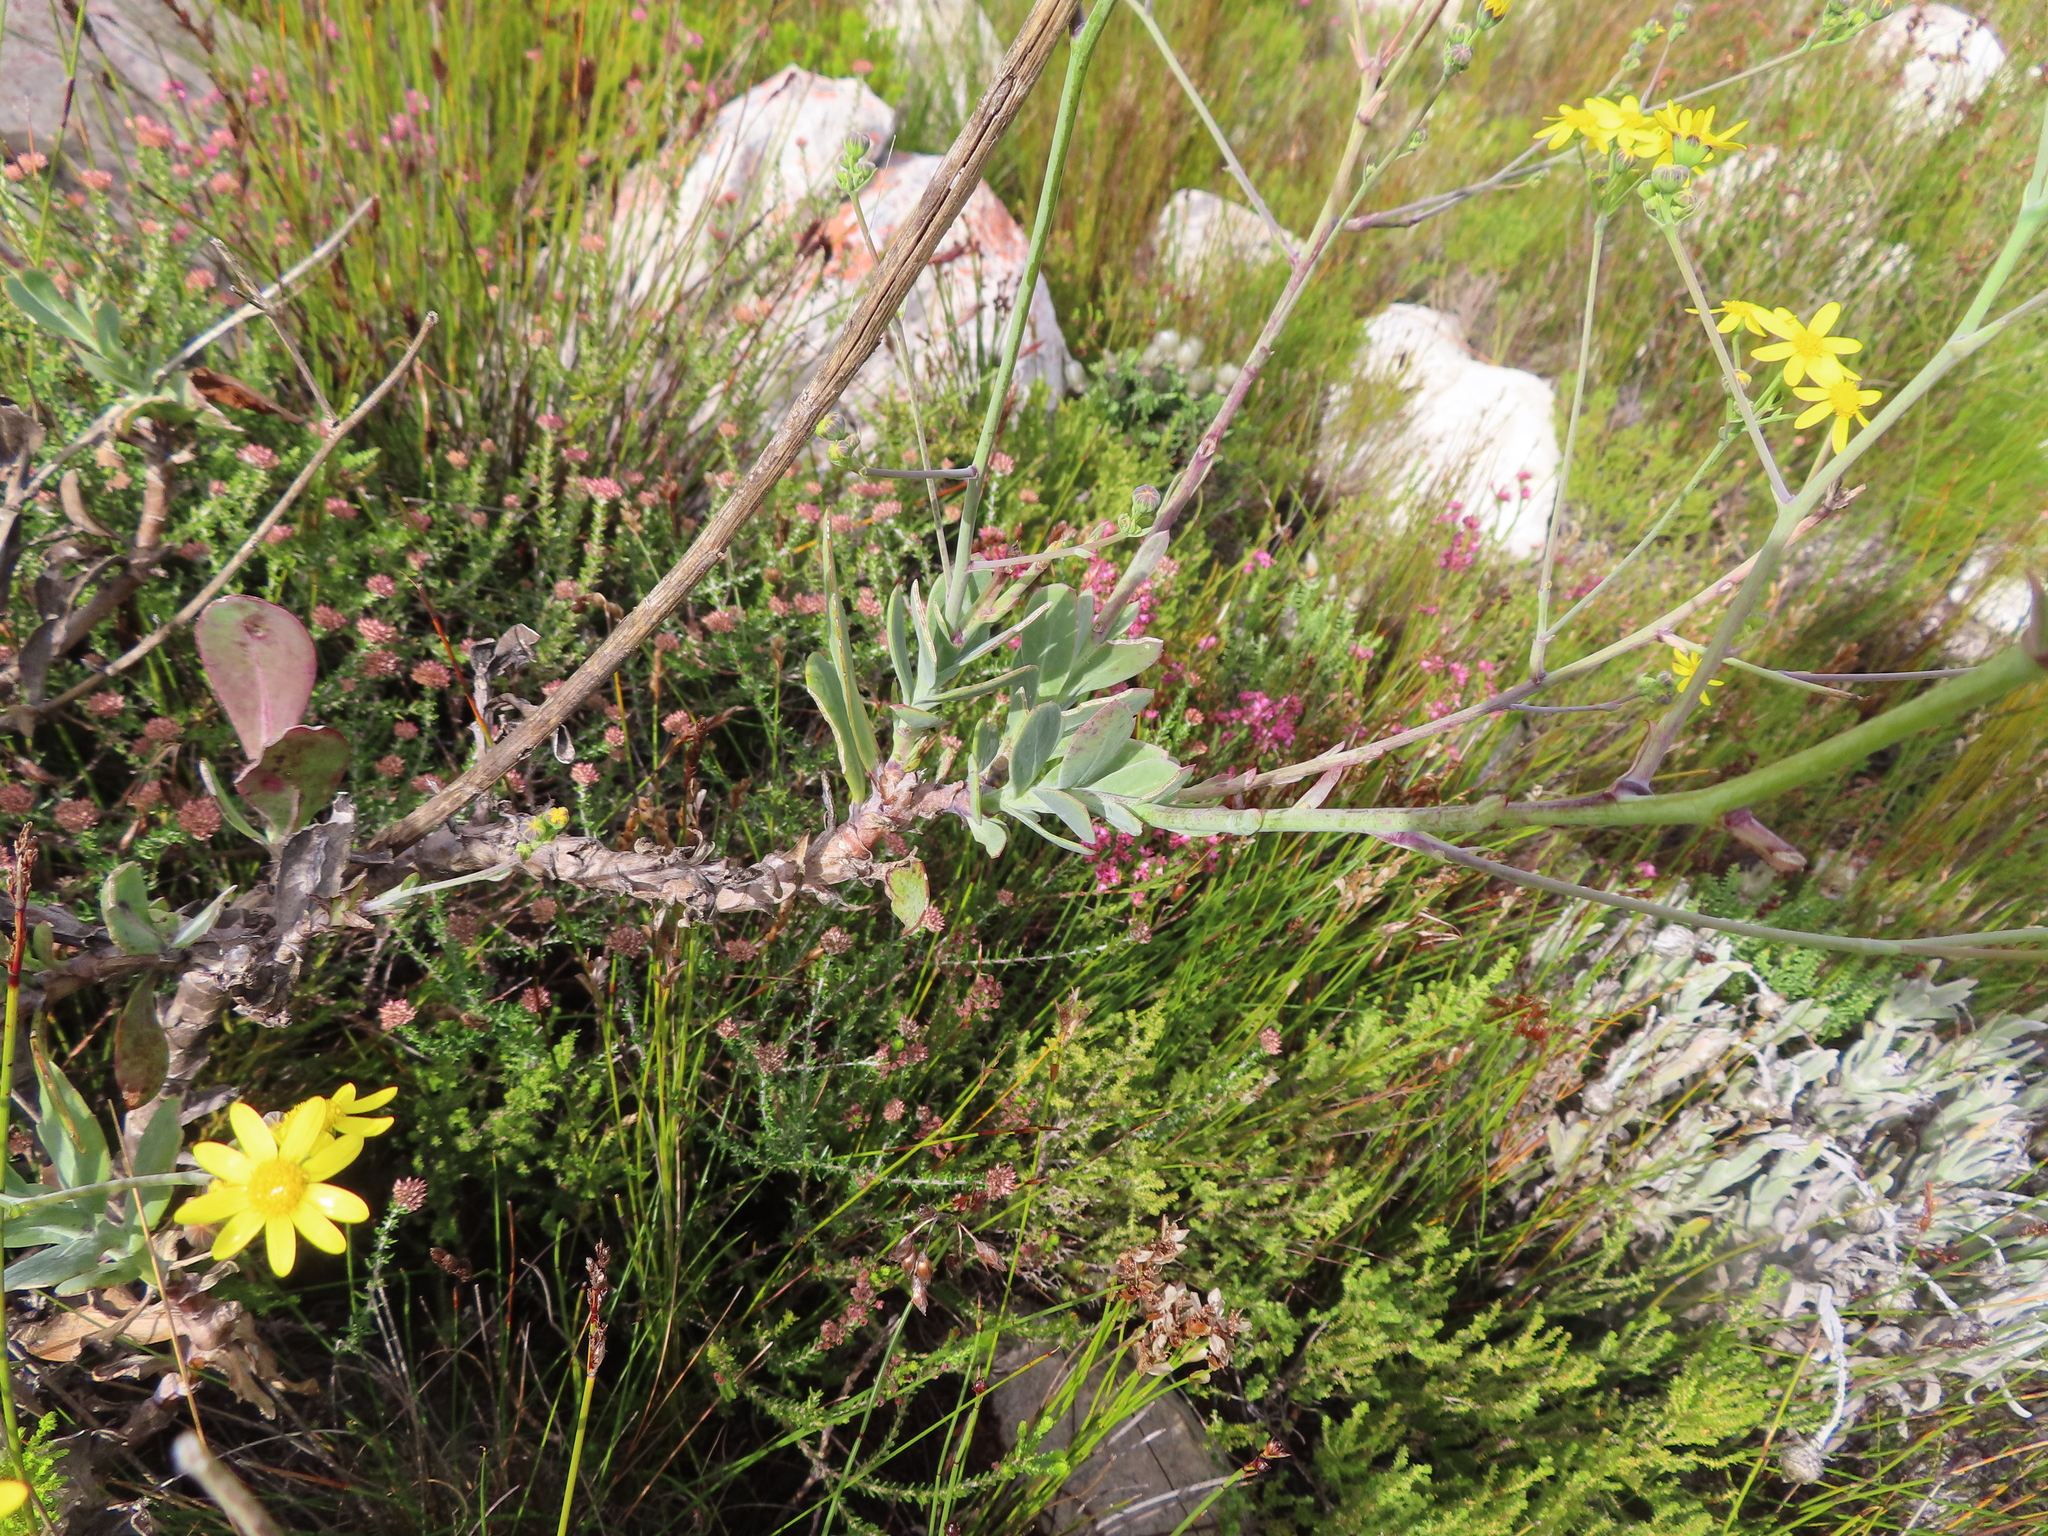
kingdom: Plantae
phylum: Tracheophyta
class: Magnoliopsida
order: Asterales
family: Asteraceae
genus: Othonna
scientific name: Othonna quinquedentata
